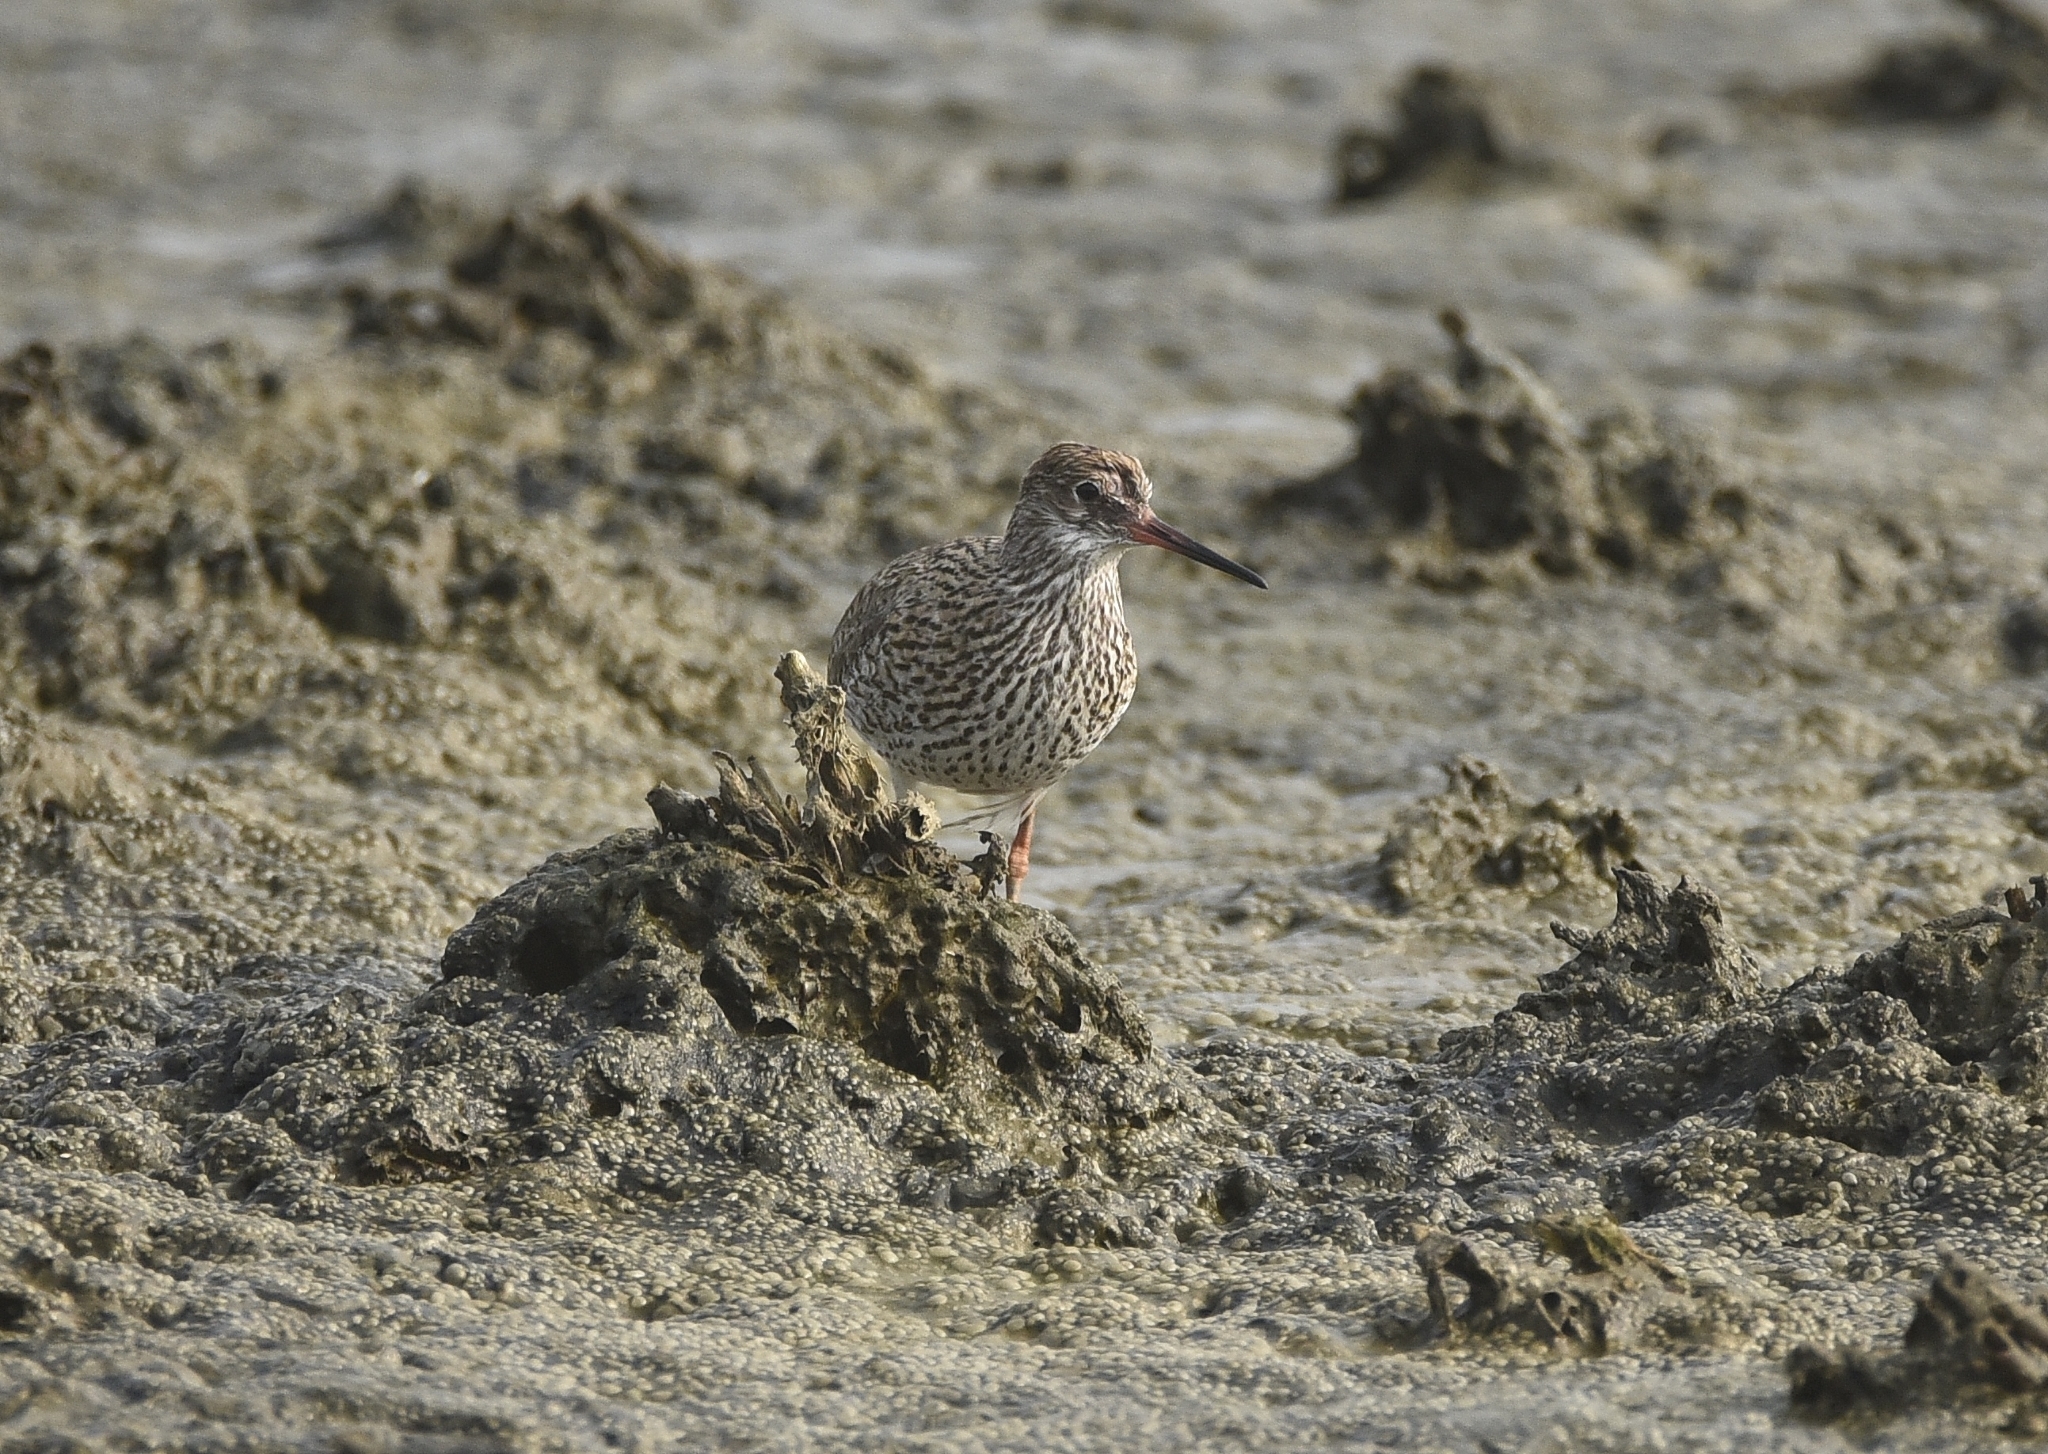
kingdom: Animalia
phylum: Chordata
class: Aves
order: Charadriiformes
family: Scolopacidae
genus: Tringa
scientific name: Tringa totanus
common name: Common redshank
